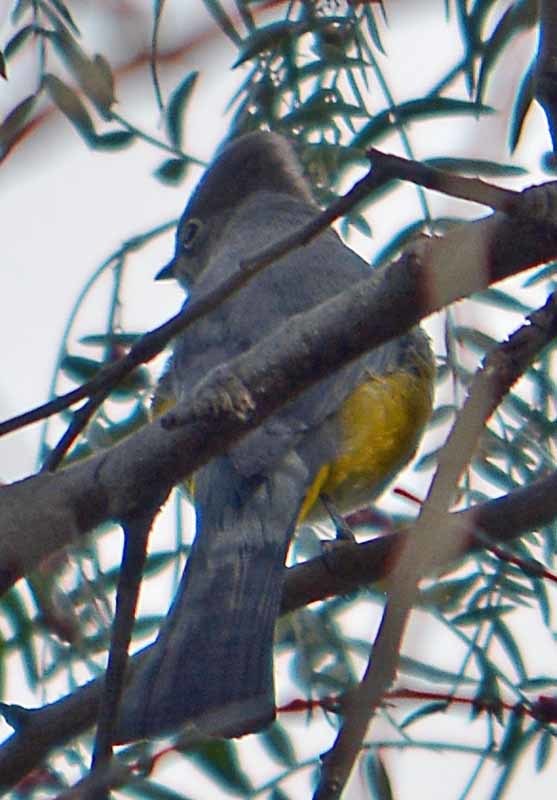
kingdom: Animalia
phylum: Chordata
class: Aves
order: Passeriformes
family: Ptilogonatidae
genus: Ptilogonys
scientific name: Ptilogonys cinereus
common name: Gray silky-flycatcher
